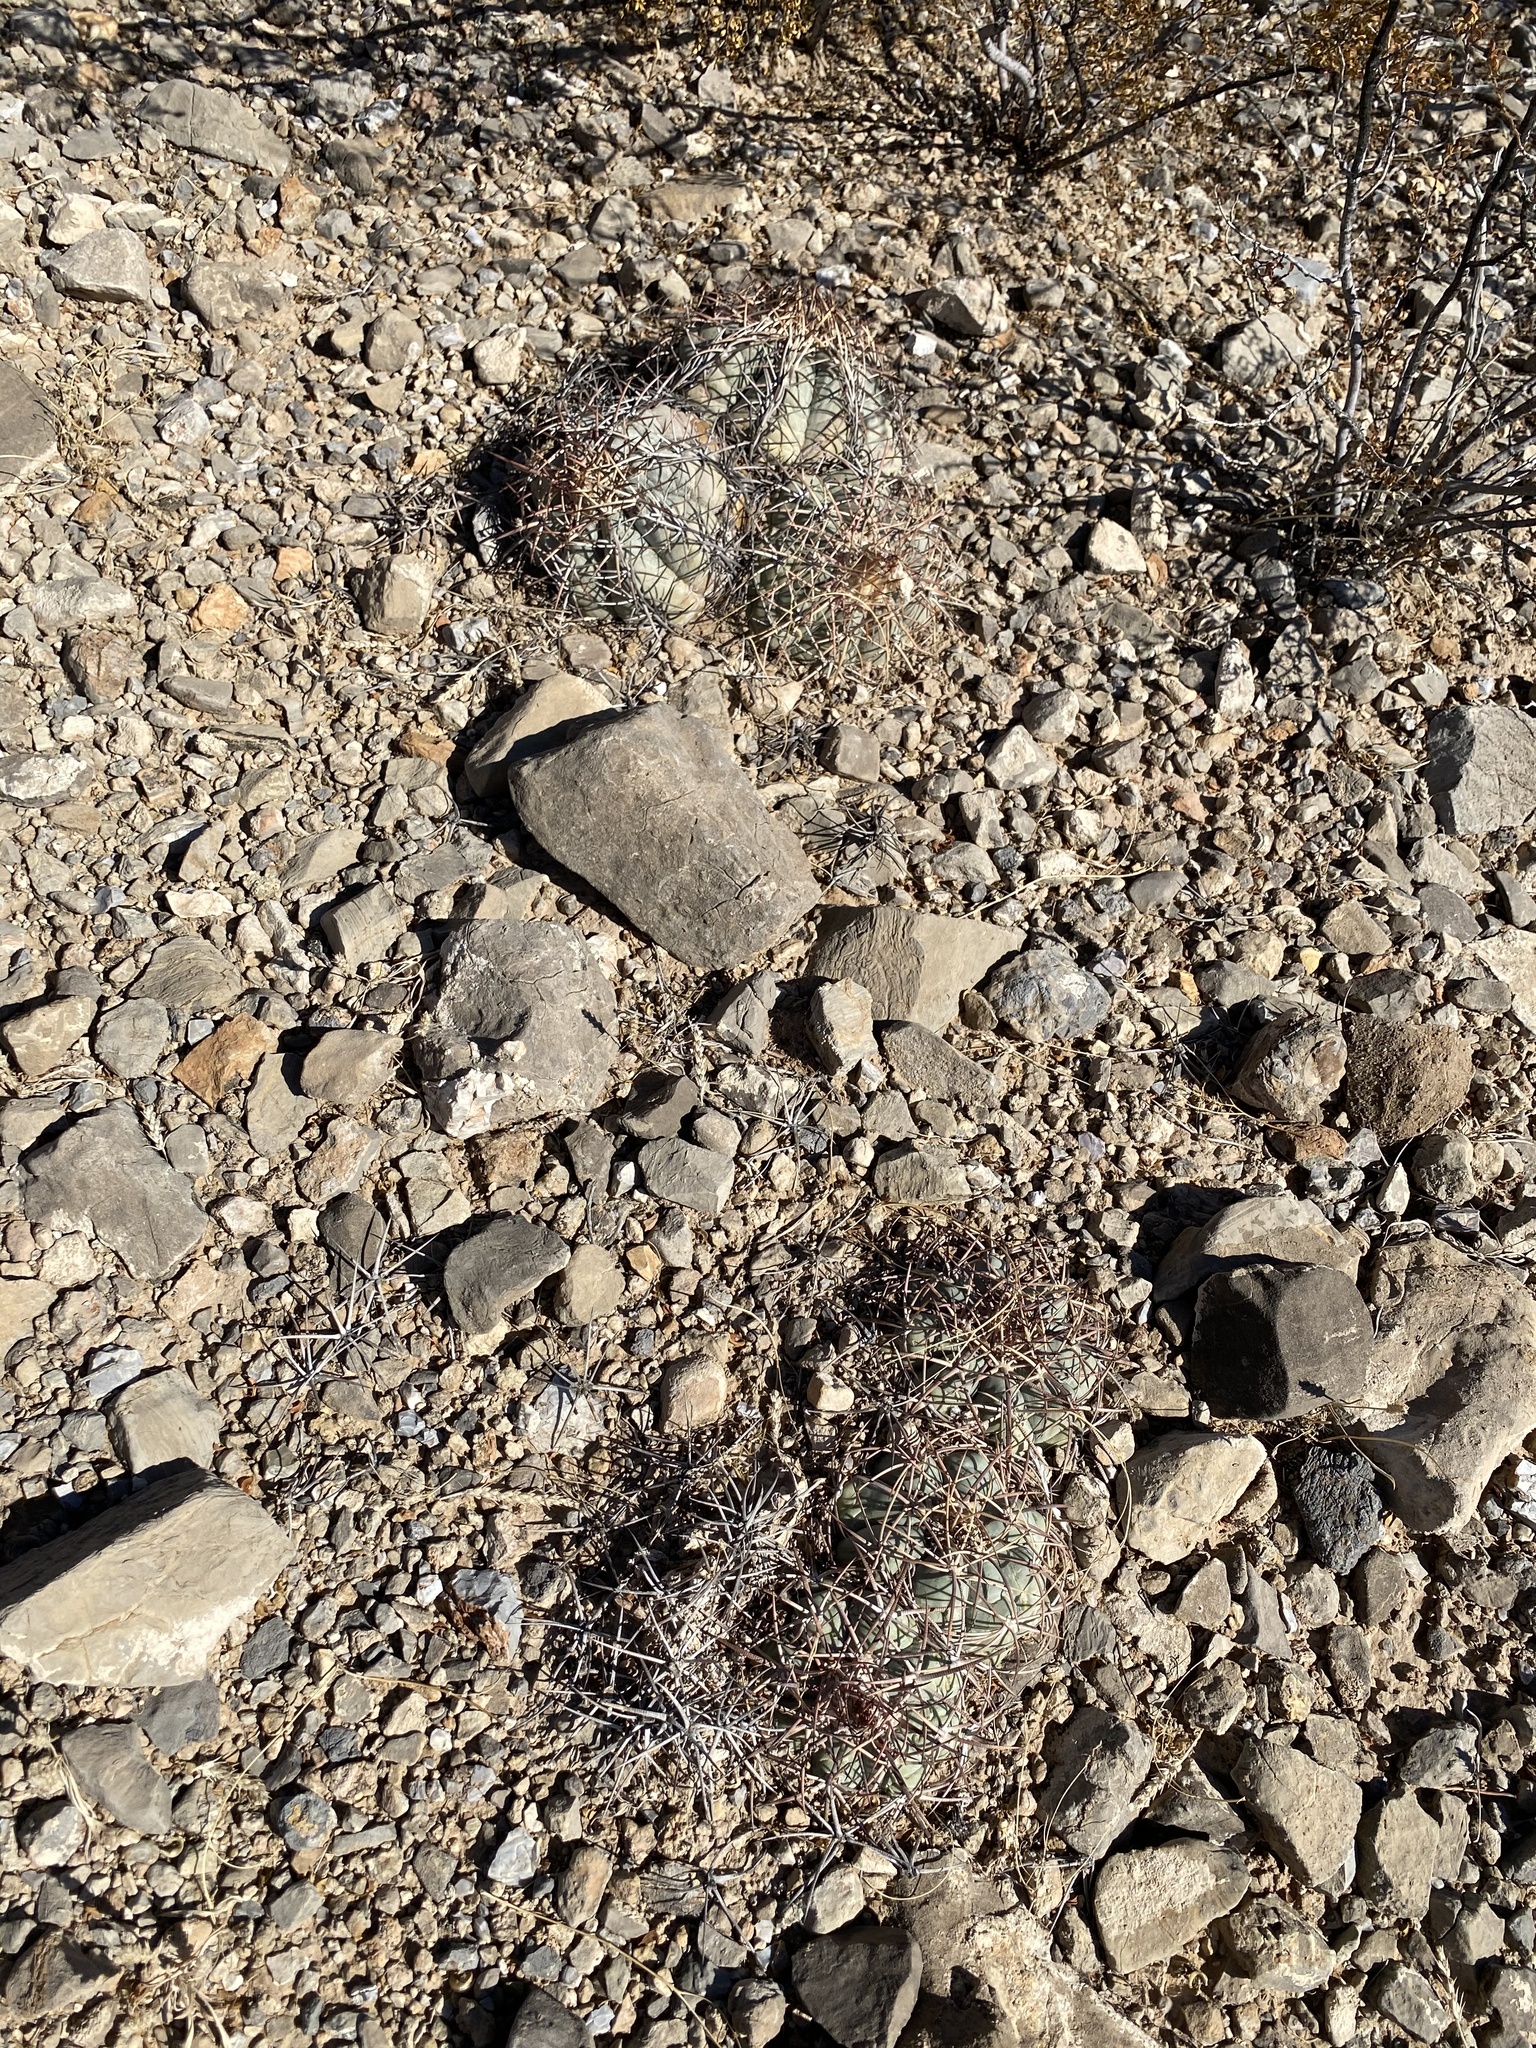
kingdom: Plantae
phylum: Tracheophyta
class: Magnoliopsida
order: Caryophyllales
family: Cactaceae
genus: Echinocactus
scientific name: Echinocactus horizonthalonius
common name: Devilshead
